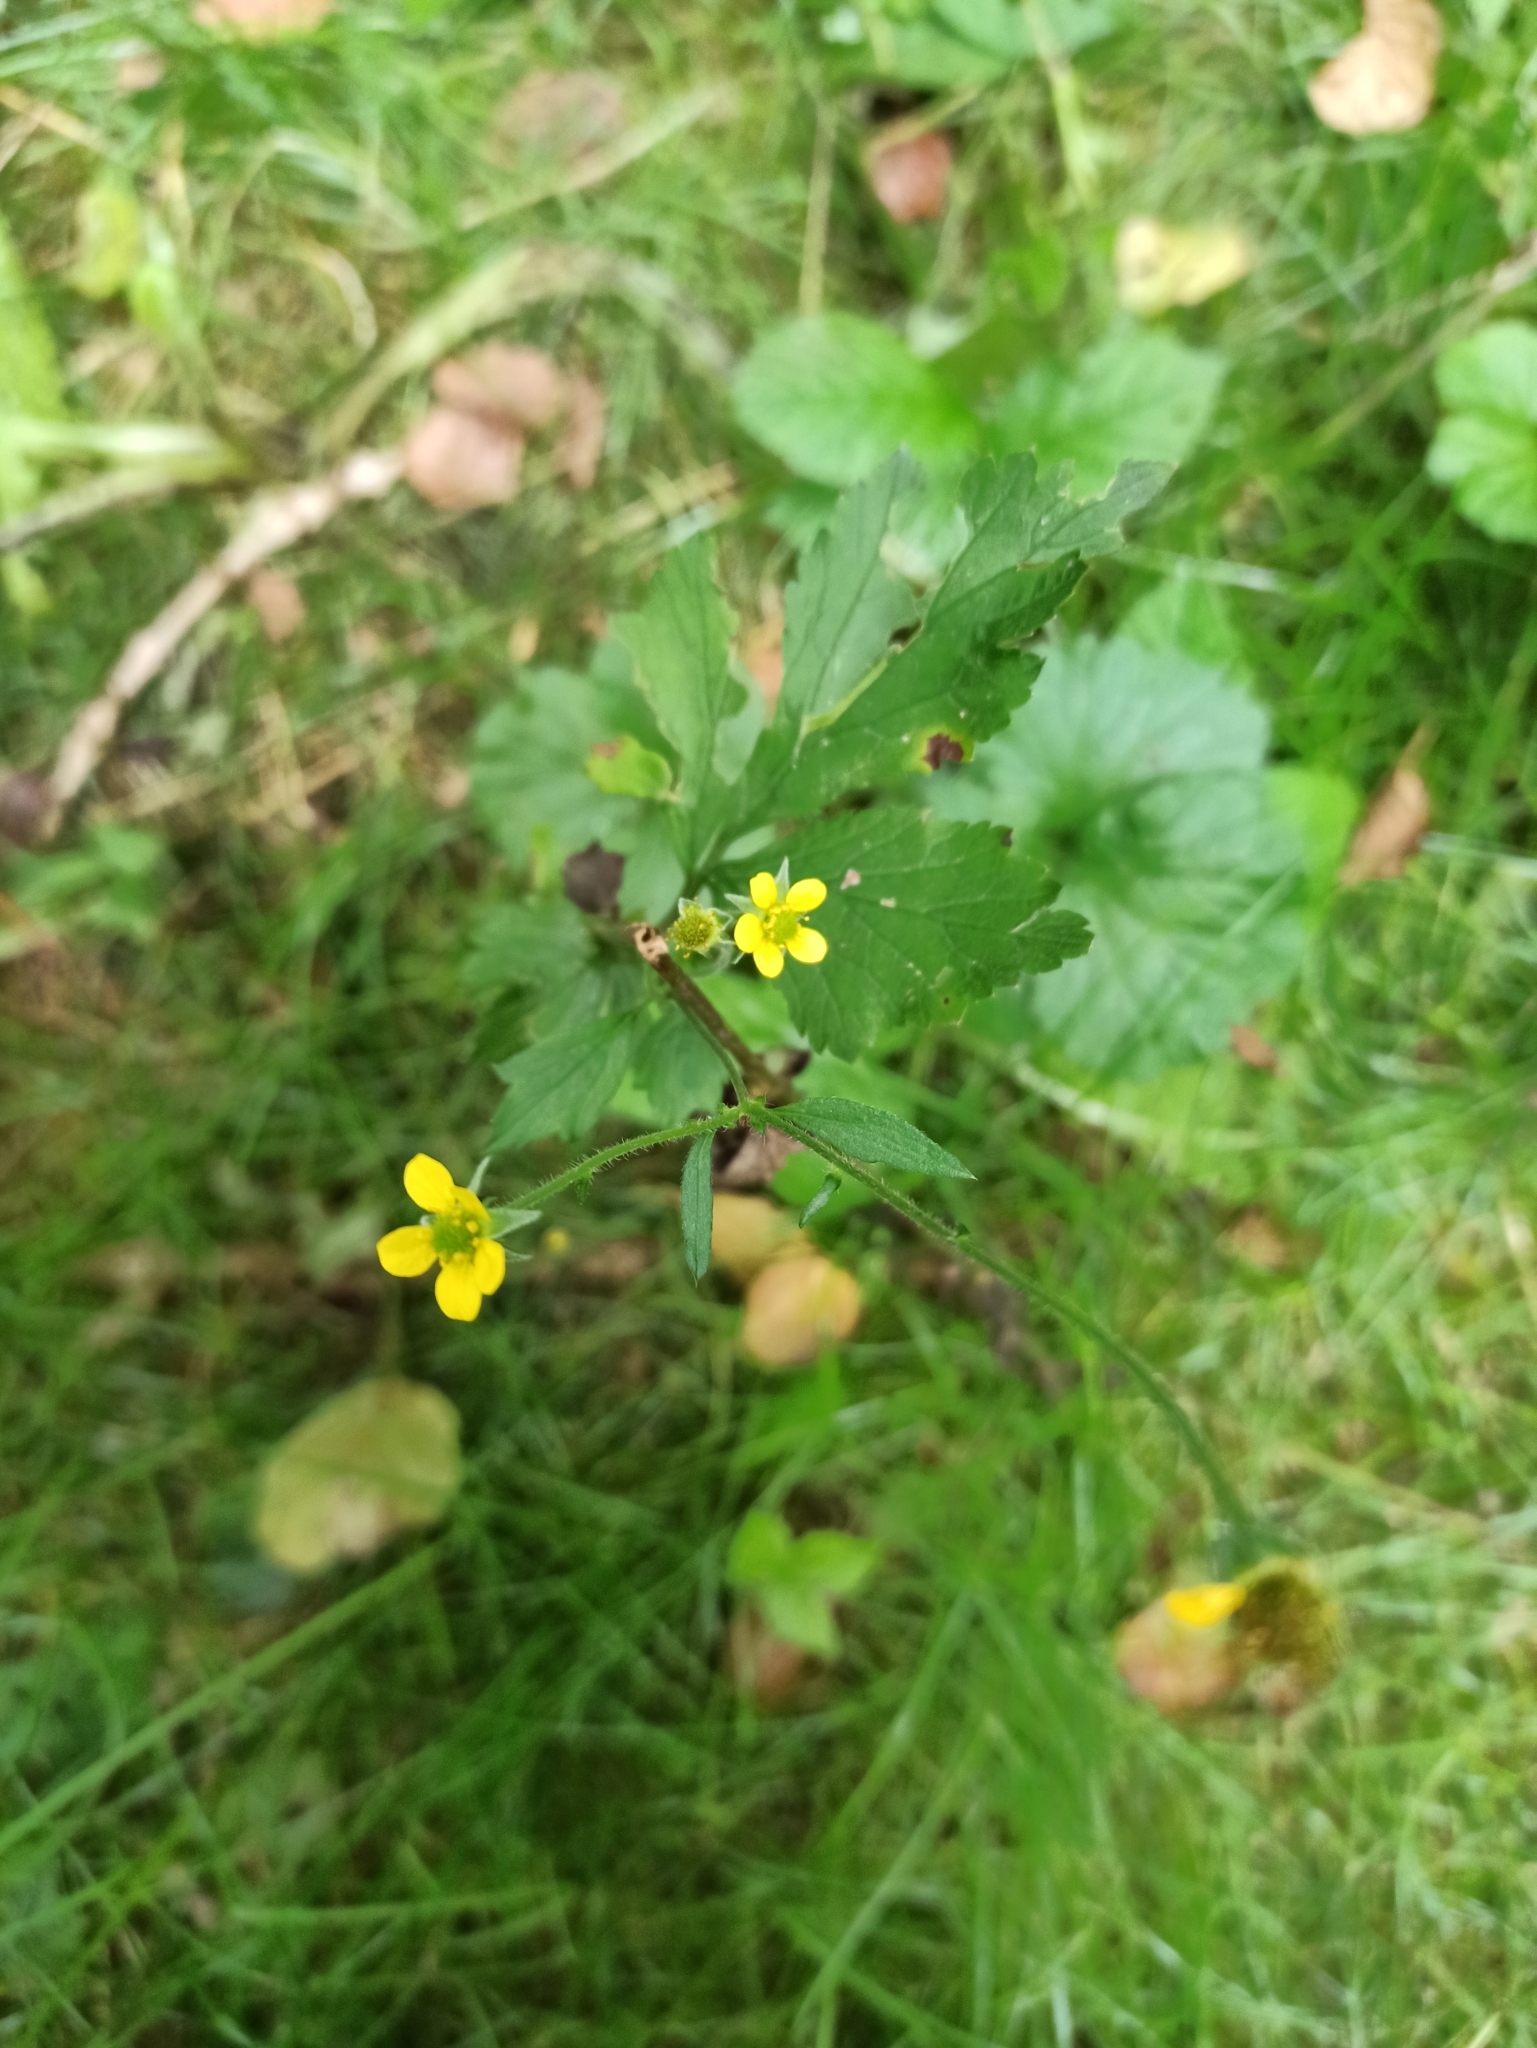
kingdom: Plantae
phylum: Tracheophyta
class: Magnoliopsida
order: Rosales
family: Rosaceae
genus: Geum
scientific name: Geum urbanum
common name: Wood avens
